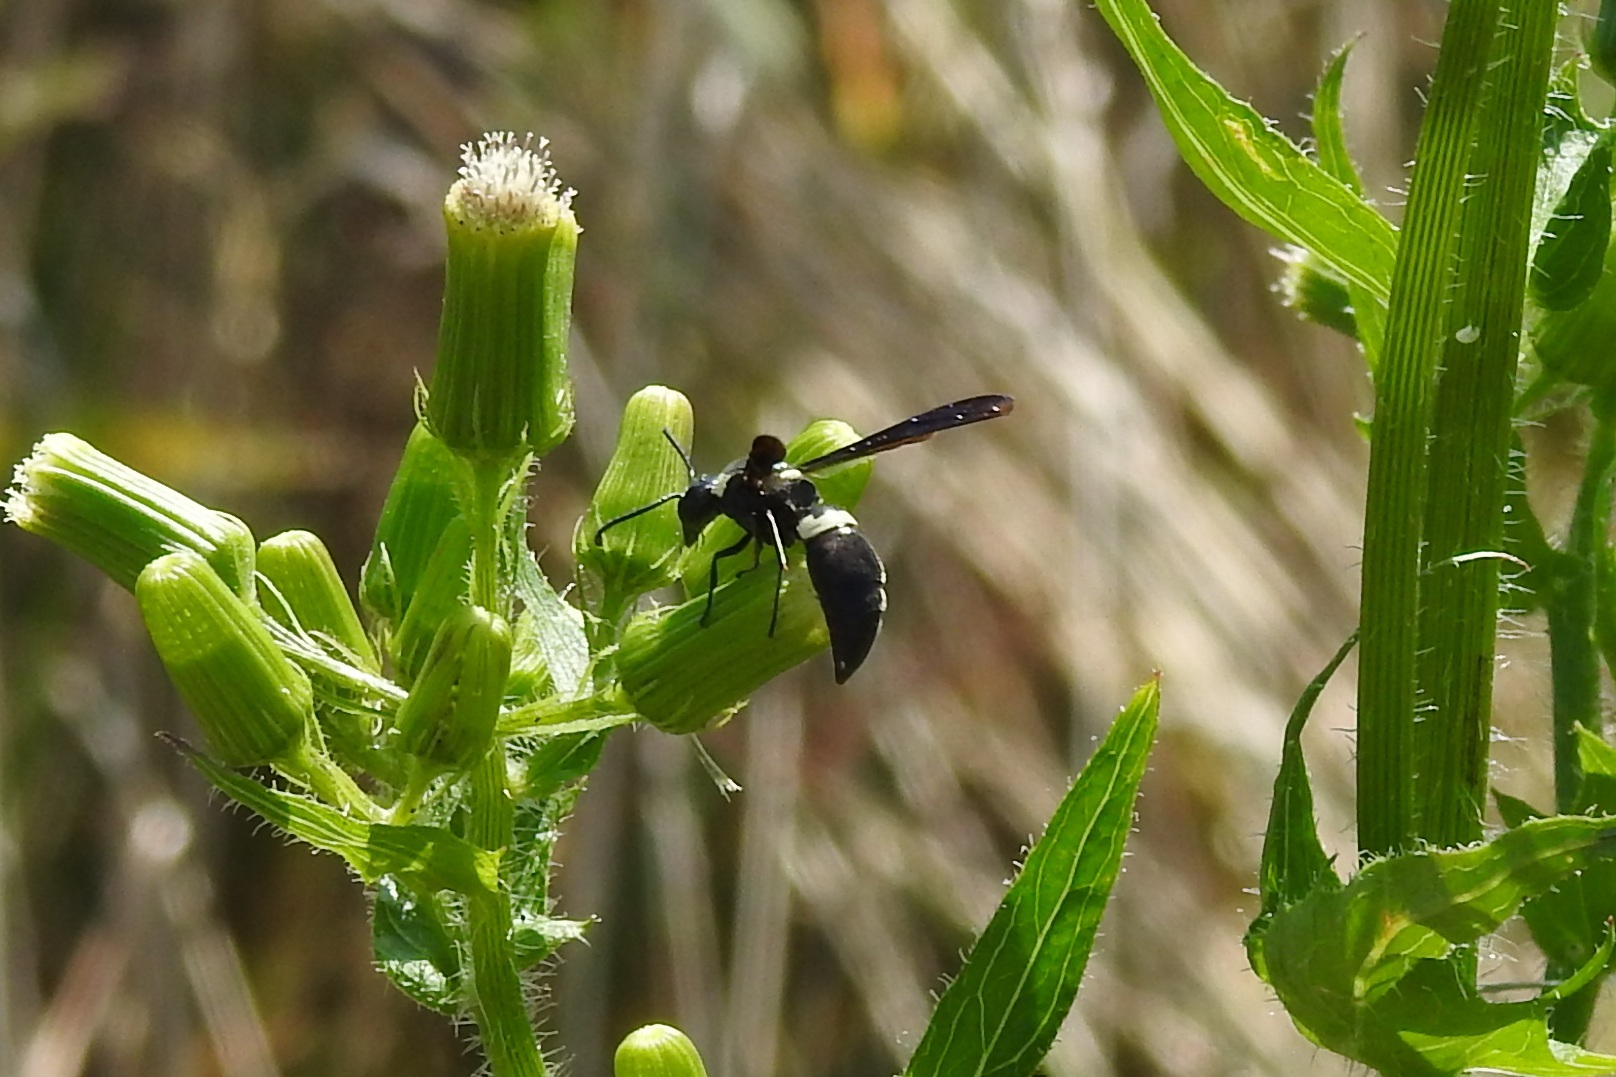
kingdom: Animalia
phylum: Arthropoda
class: Insecta
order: Hymenoptera
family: Eumenidae
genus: Monobia
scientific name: Monobia quadridens
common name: Four-toothed mason wasp
